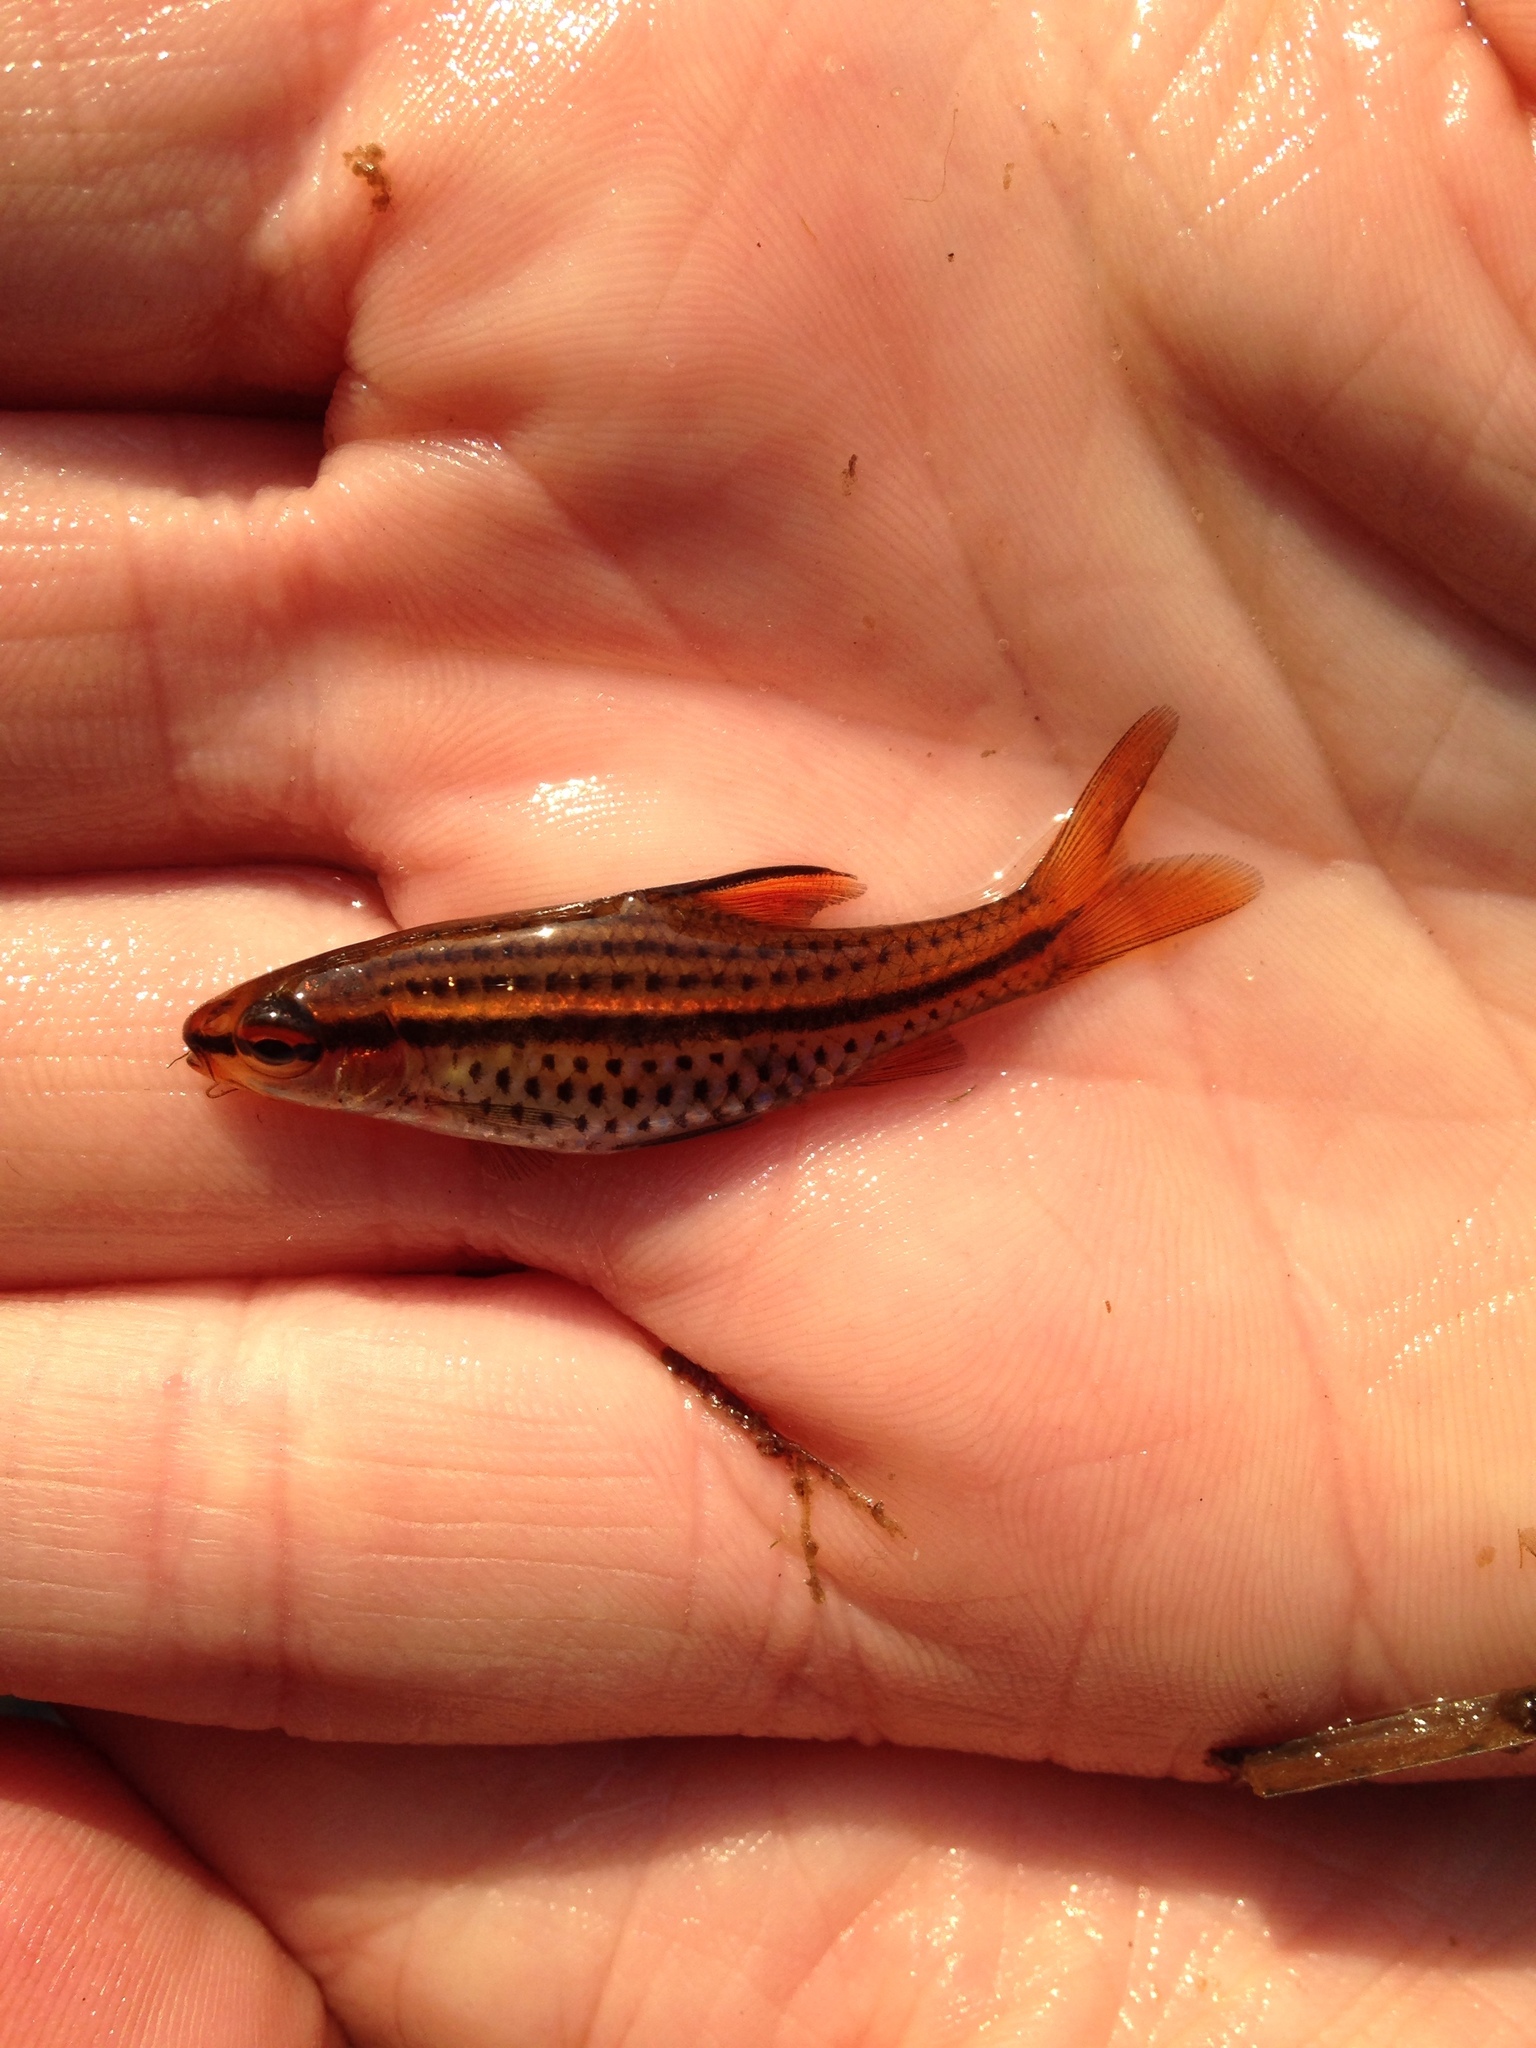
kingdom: Animalia
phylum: Chordata
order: Cypriniformes
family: Cyprinidae
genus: Enteromius
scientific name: Enteromius multilineatus
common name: Copperstripe barb
